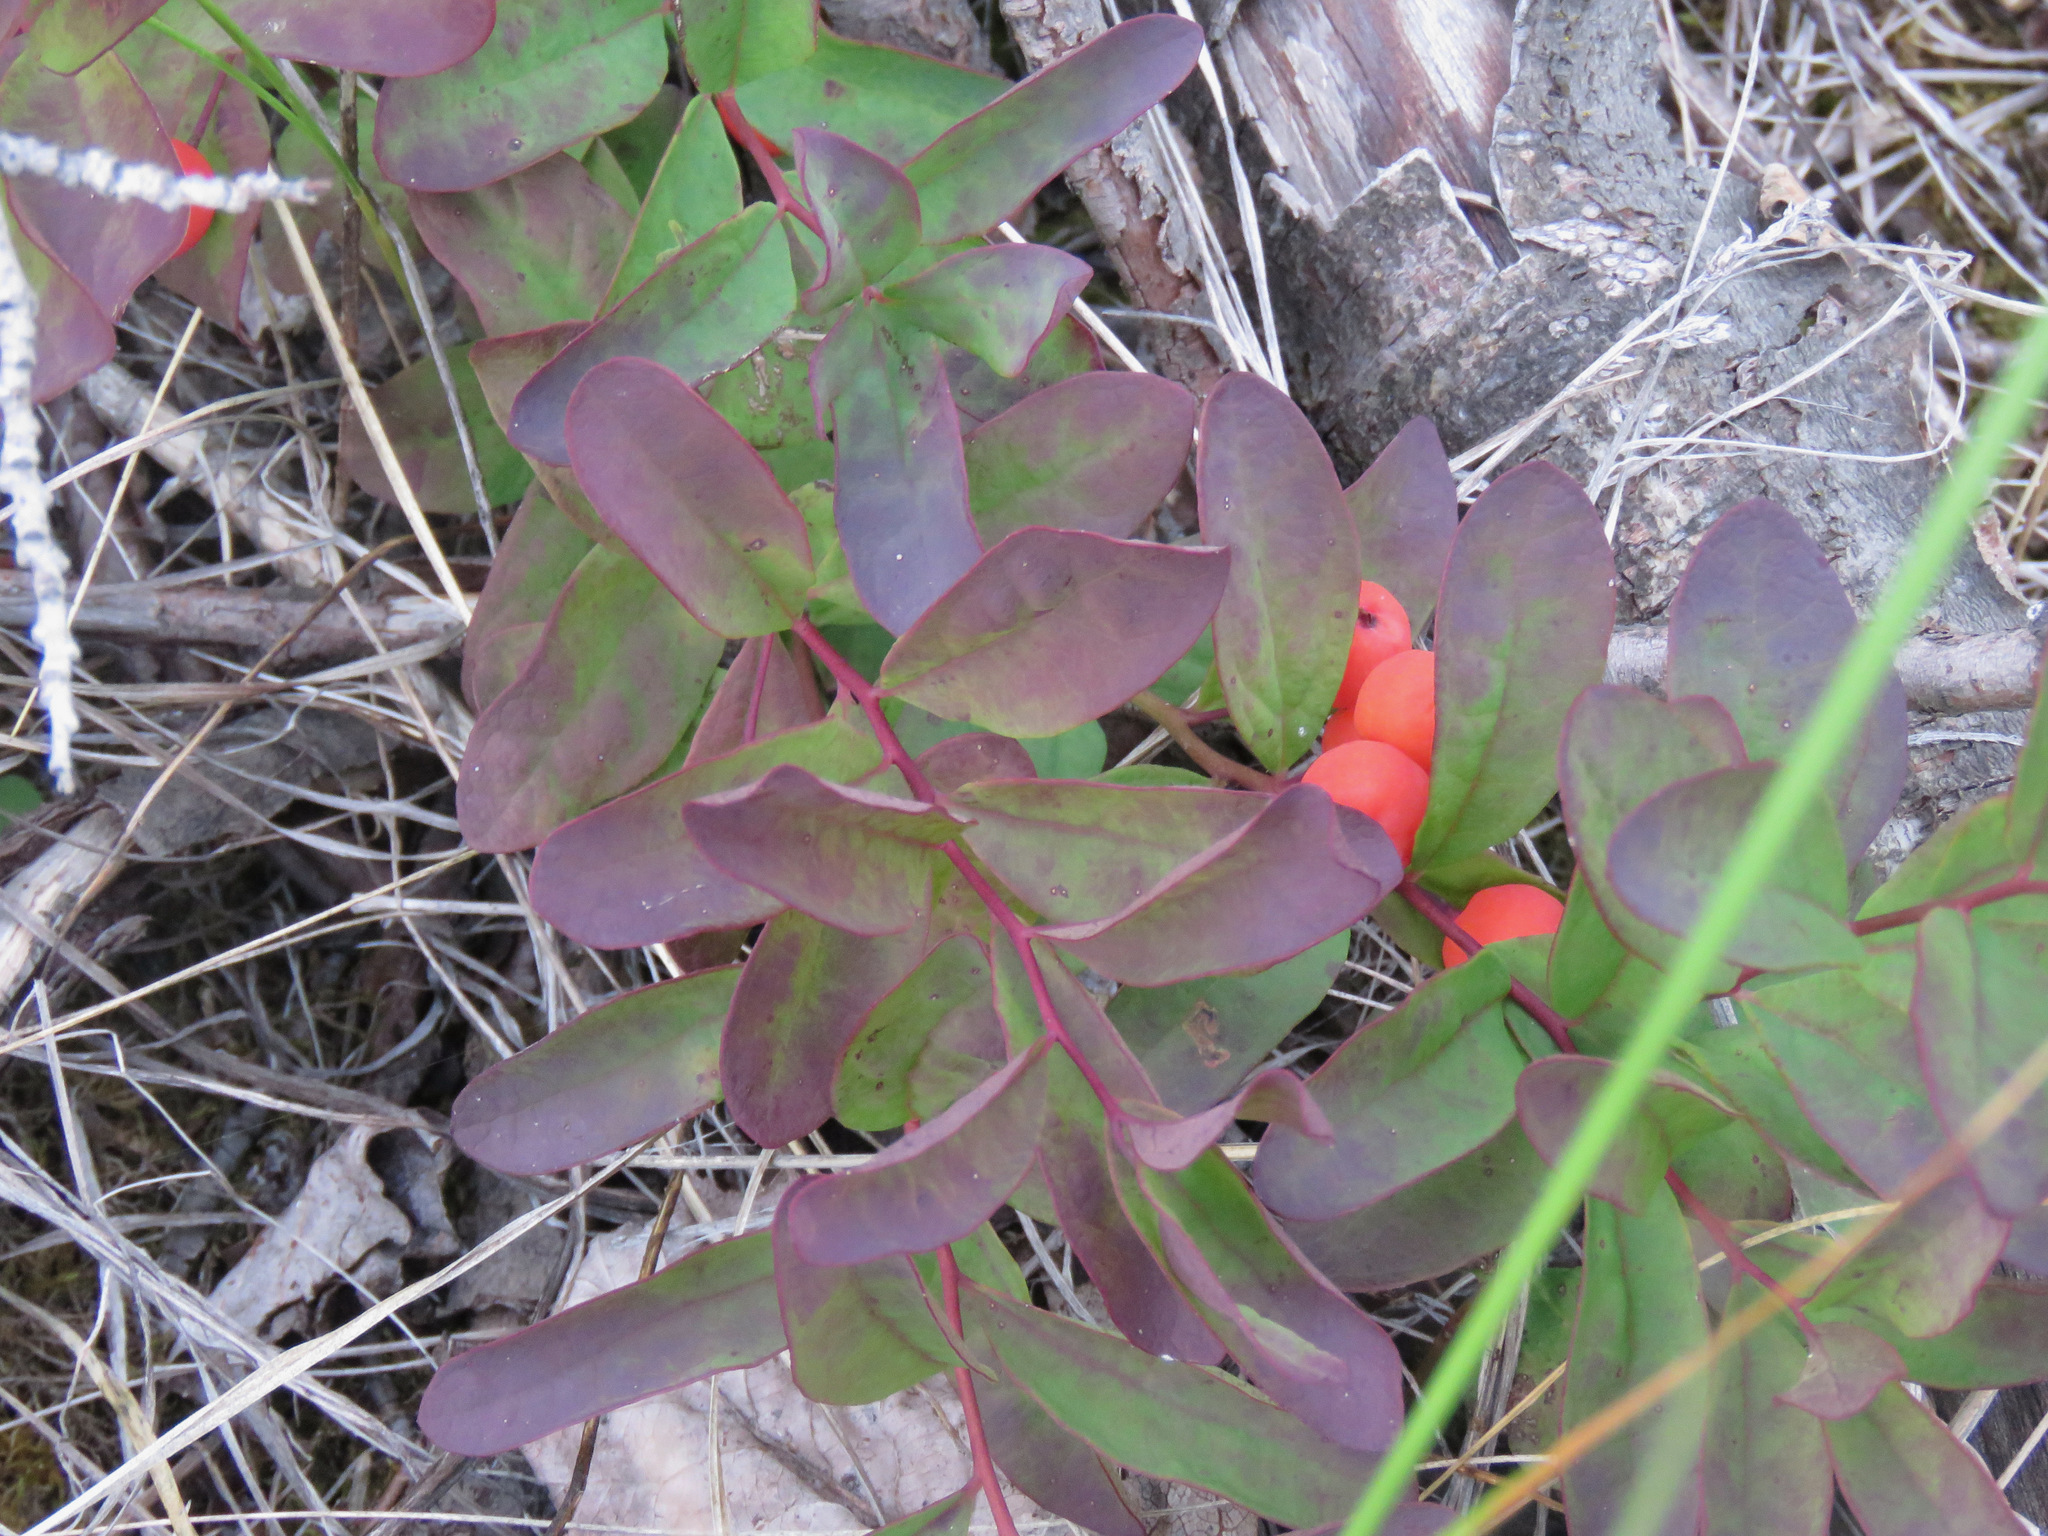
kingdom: Plantae
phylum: Tracheophyta
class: Magnoliopsida
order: Santalales
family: Comandraceae
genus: Geocaulon
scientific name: Geocaulon lividum
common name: Earthberry
